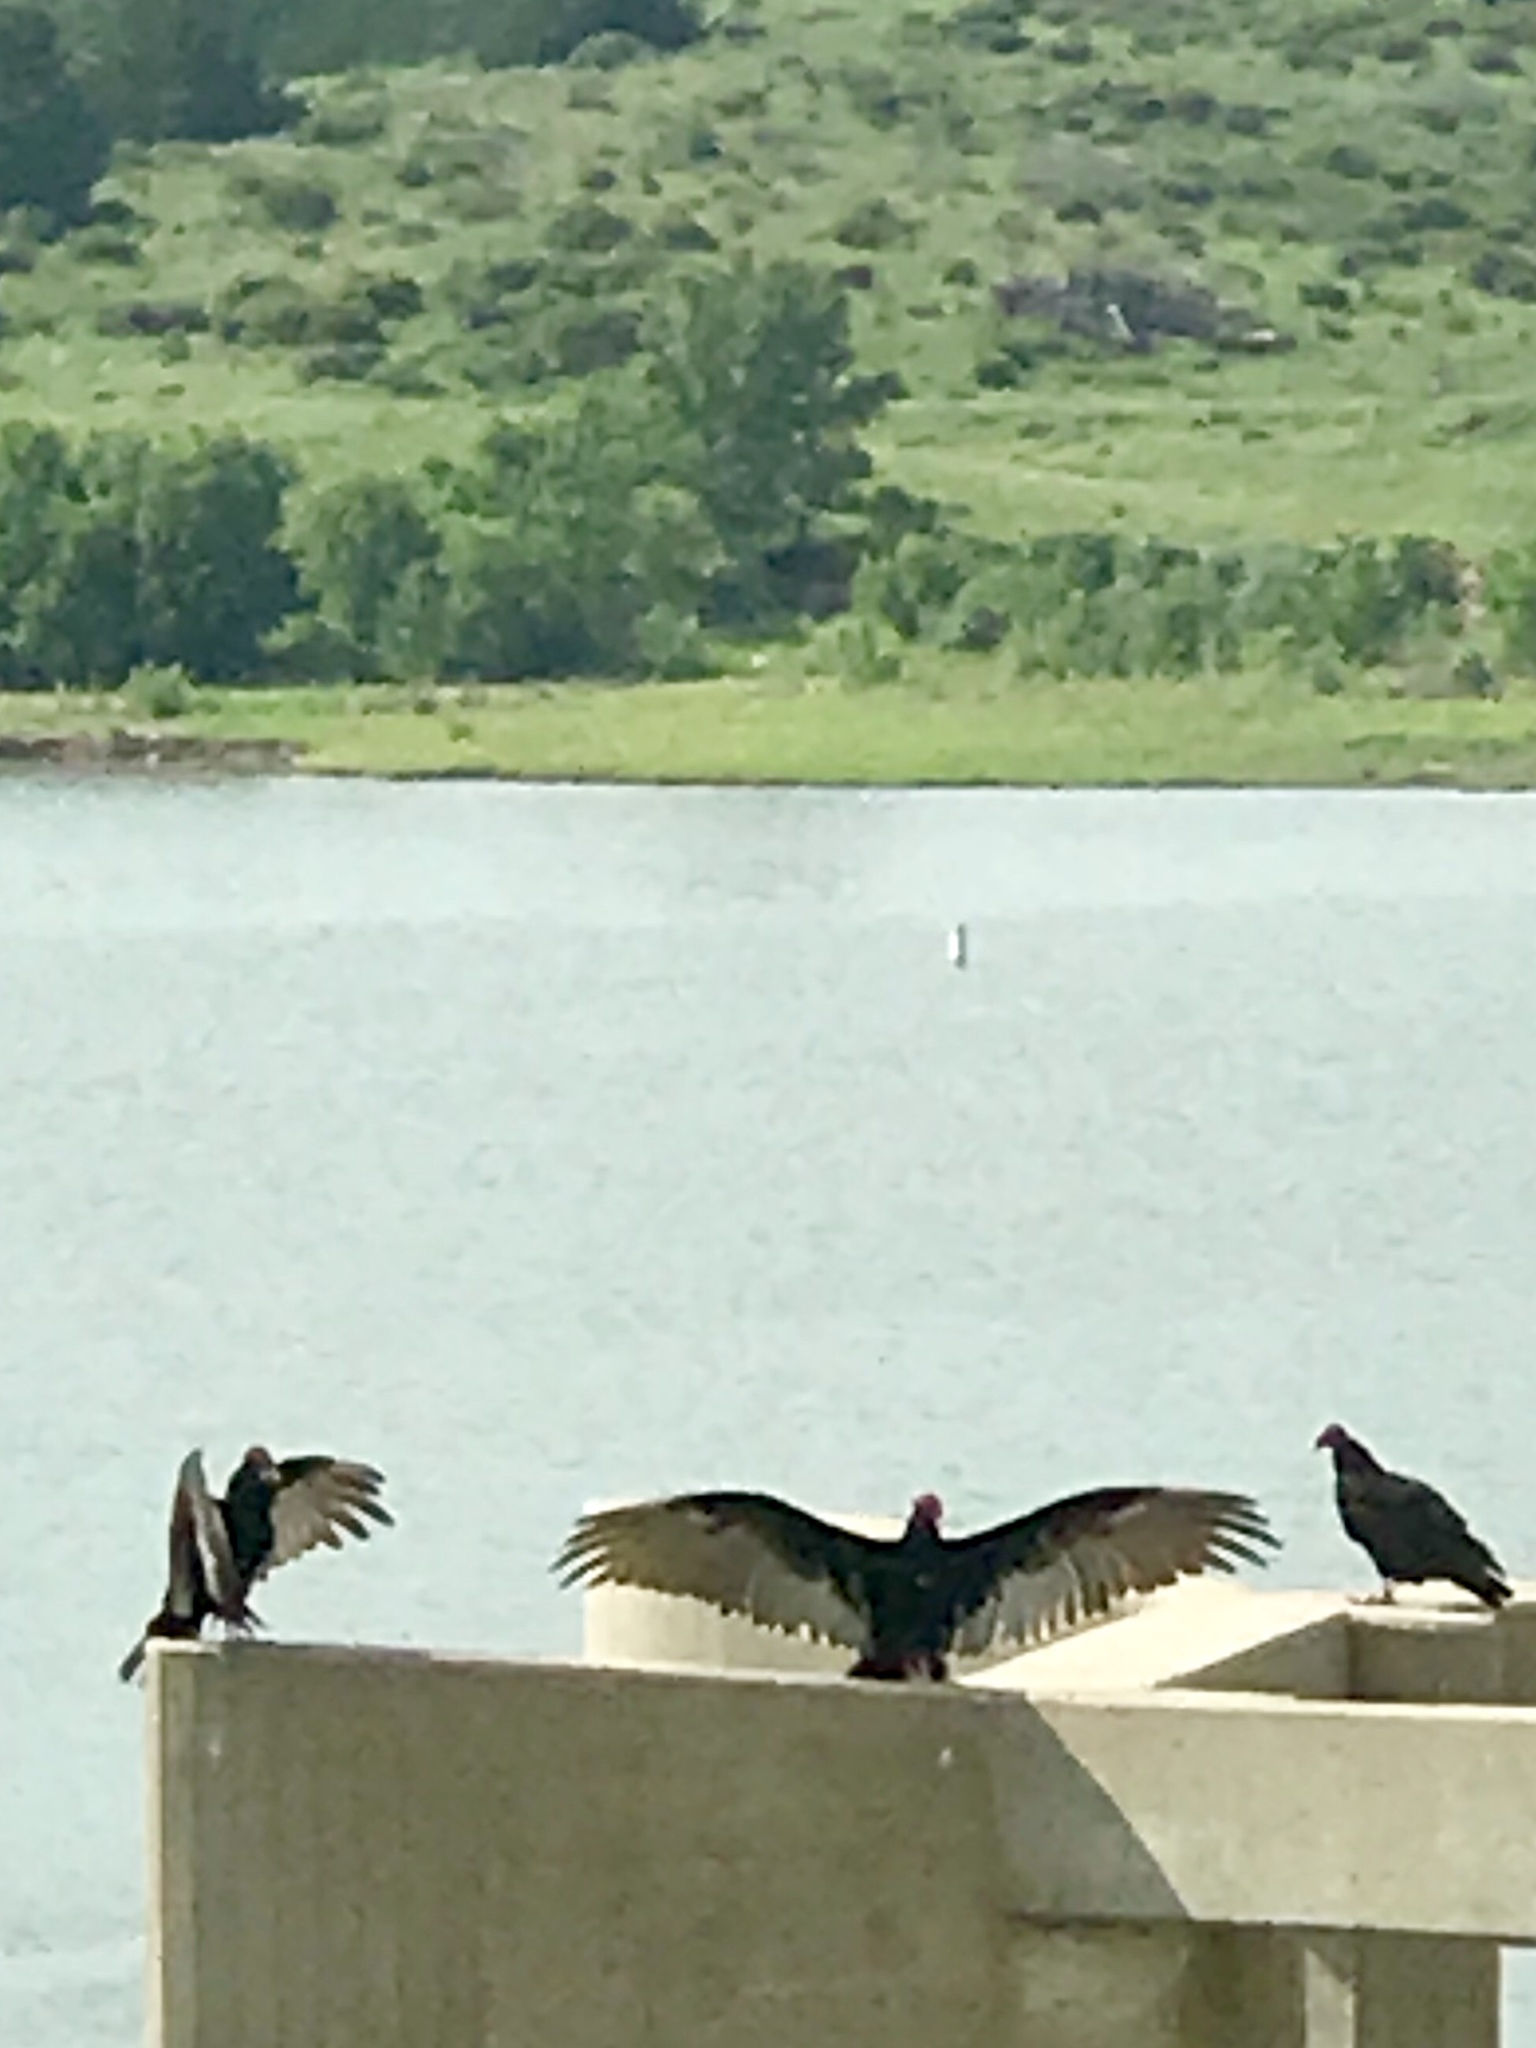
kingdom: Animalia
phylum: Chordata
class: Aves
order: Accipitriformes
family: Cathartidae
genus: Cathartes
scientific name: Cathartes aura
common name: Turkey vulture
